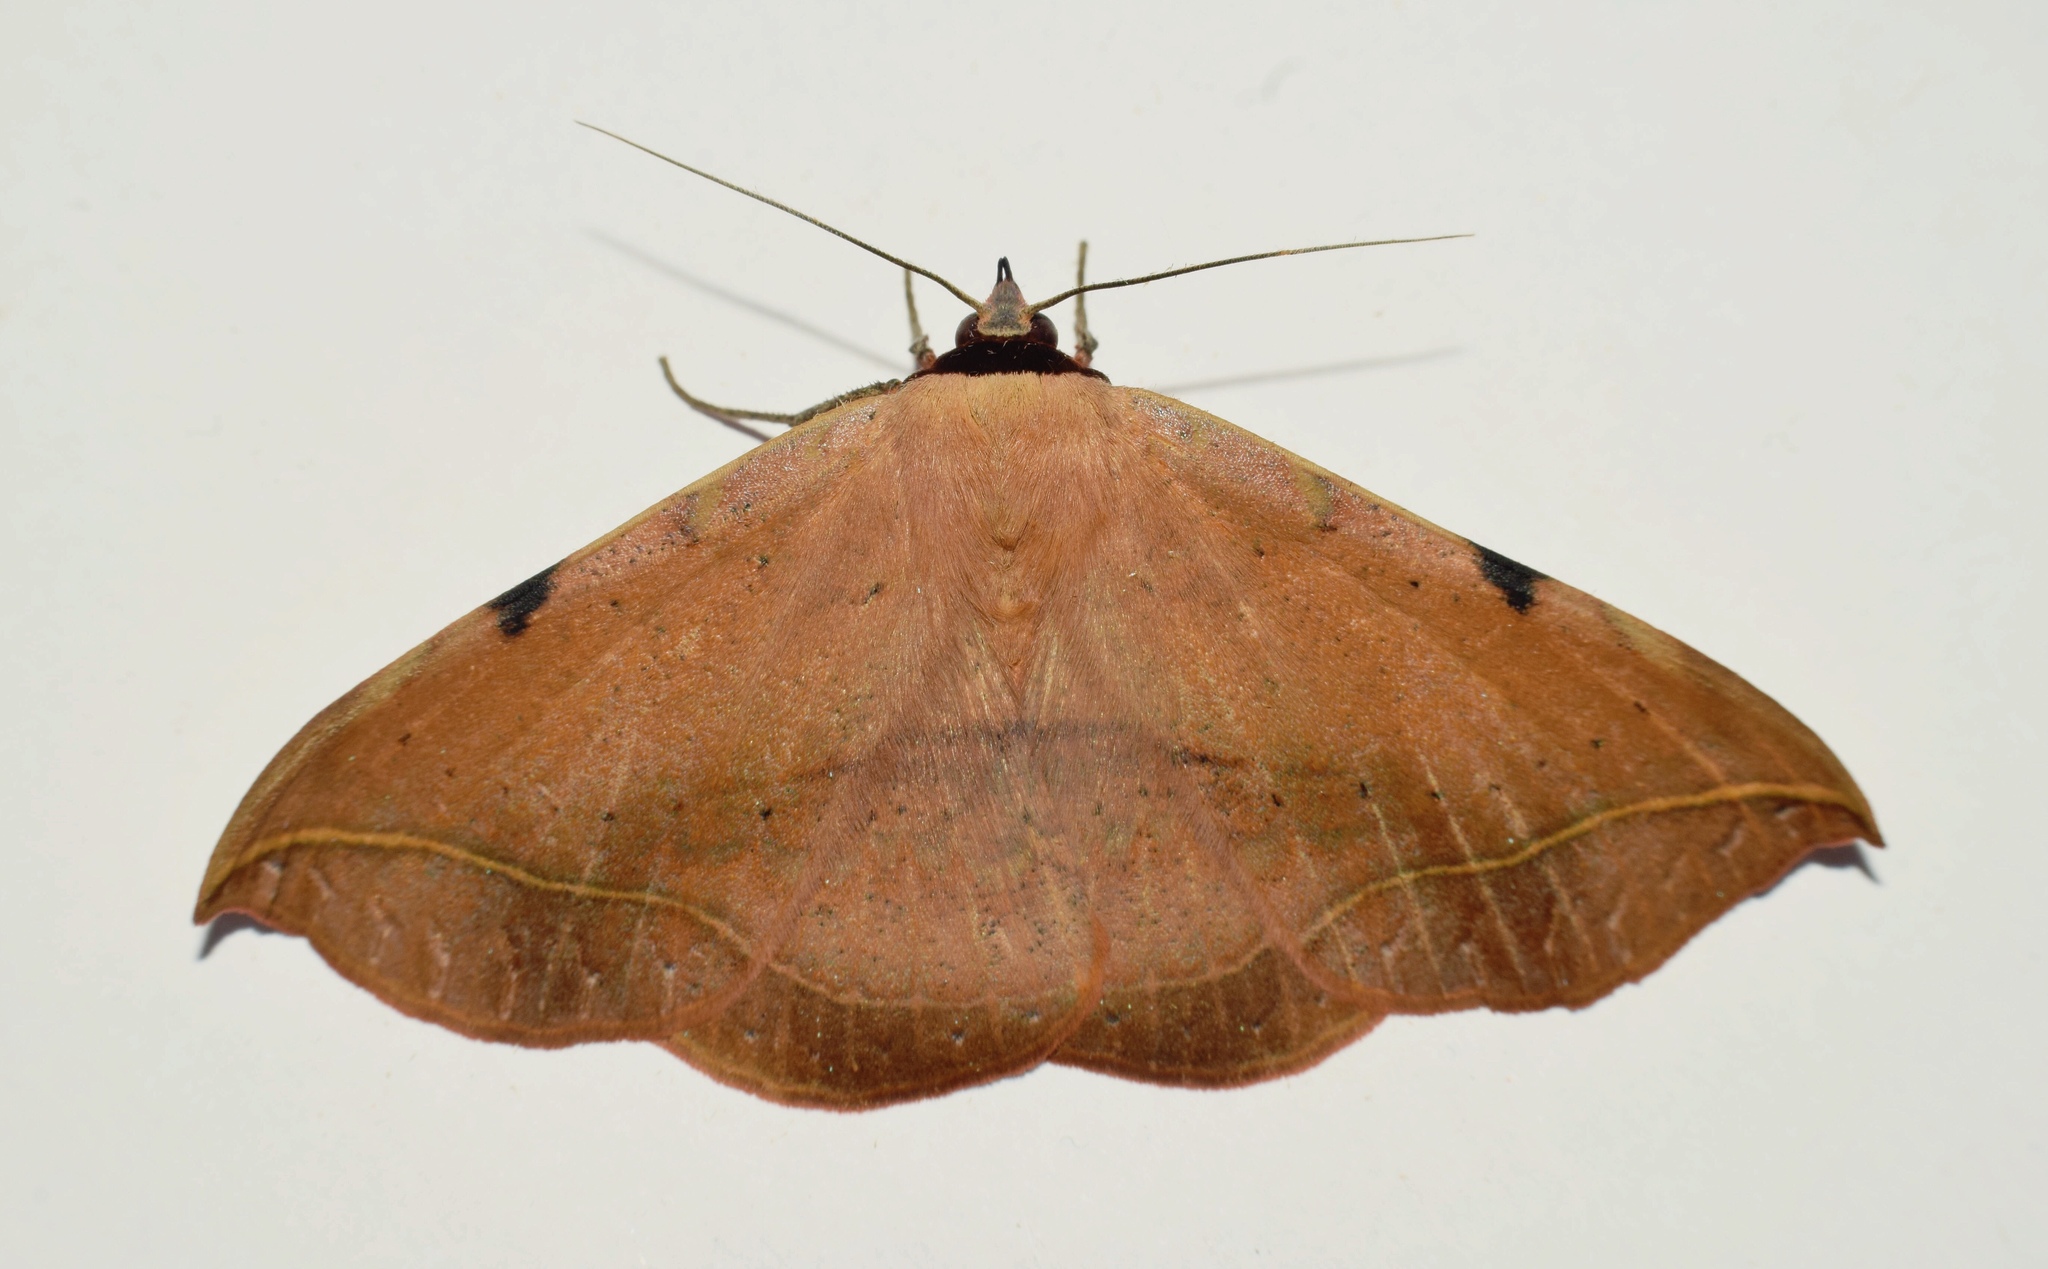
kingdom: Animalia
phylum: Arthropoda
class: Insecta
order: Lepidoptera
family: Erebidae
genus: Hypopyra
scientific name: Hypopyra capensis
